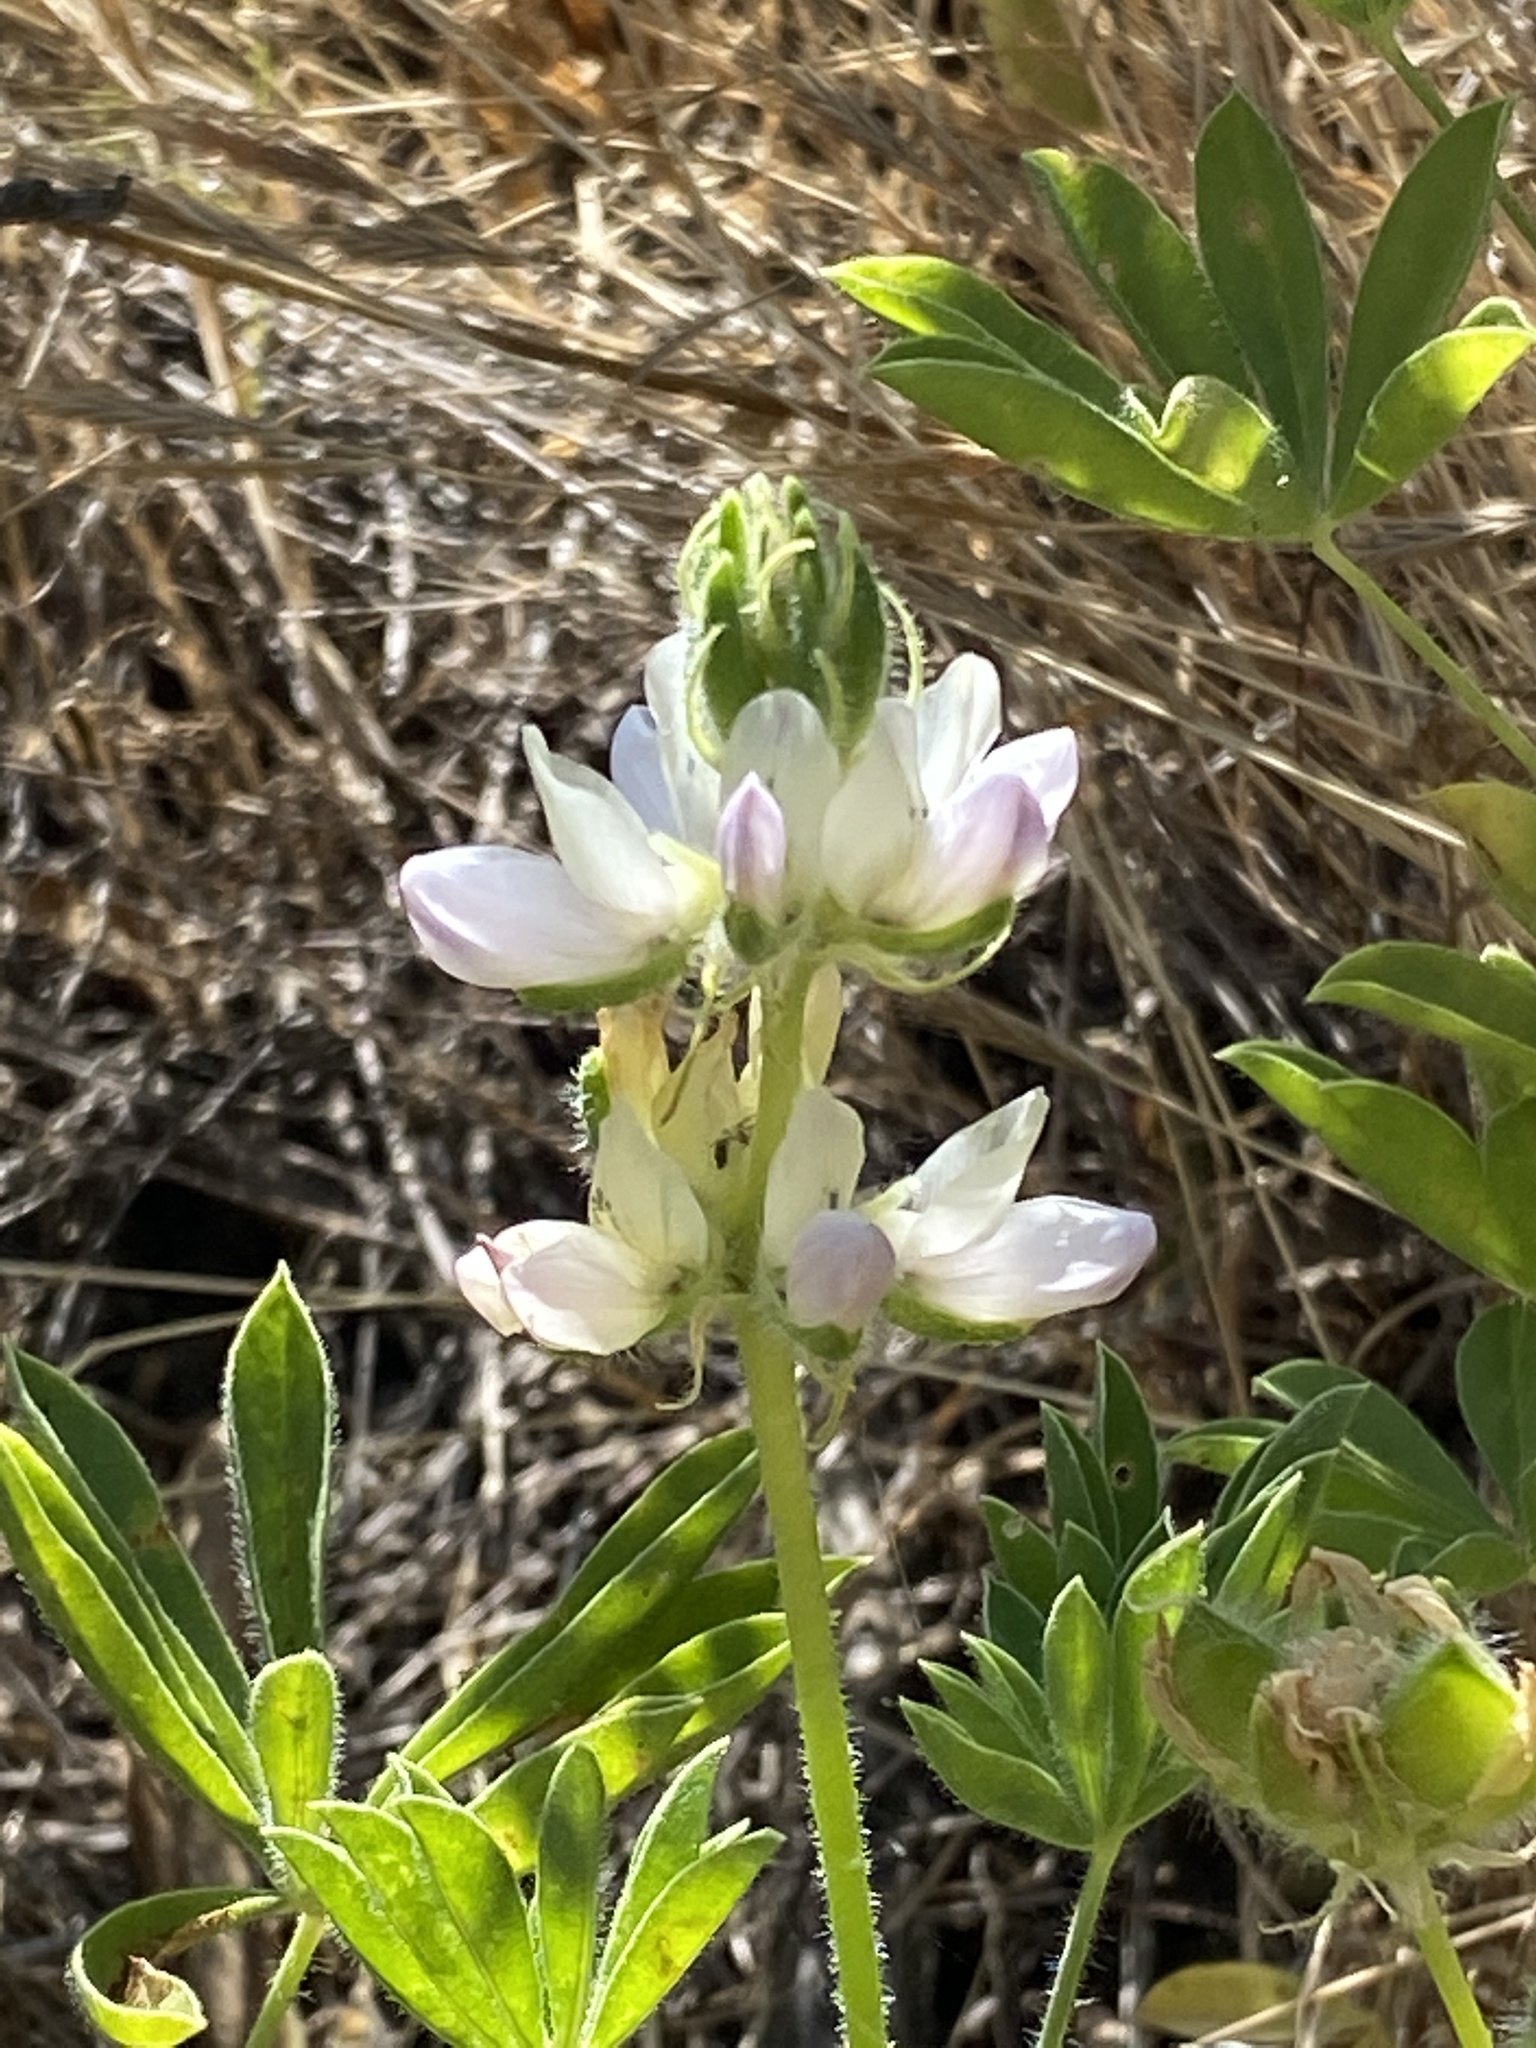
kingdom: Plantae
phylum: Tracheophyta
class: Magnoliopsida
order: Fabales
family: Fabaceae
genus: Lupinus
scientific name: Lupinus microcarpus
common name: Chick lupine
